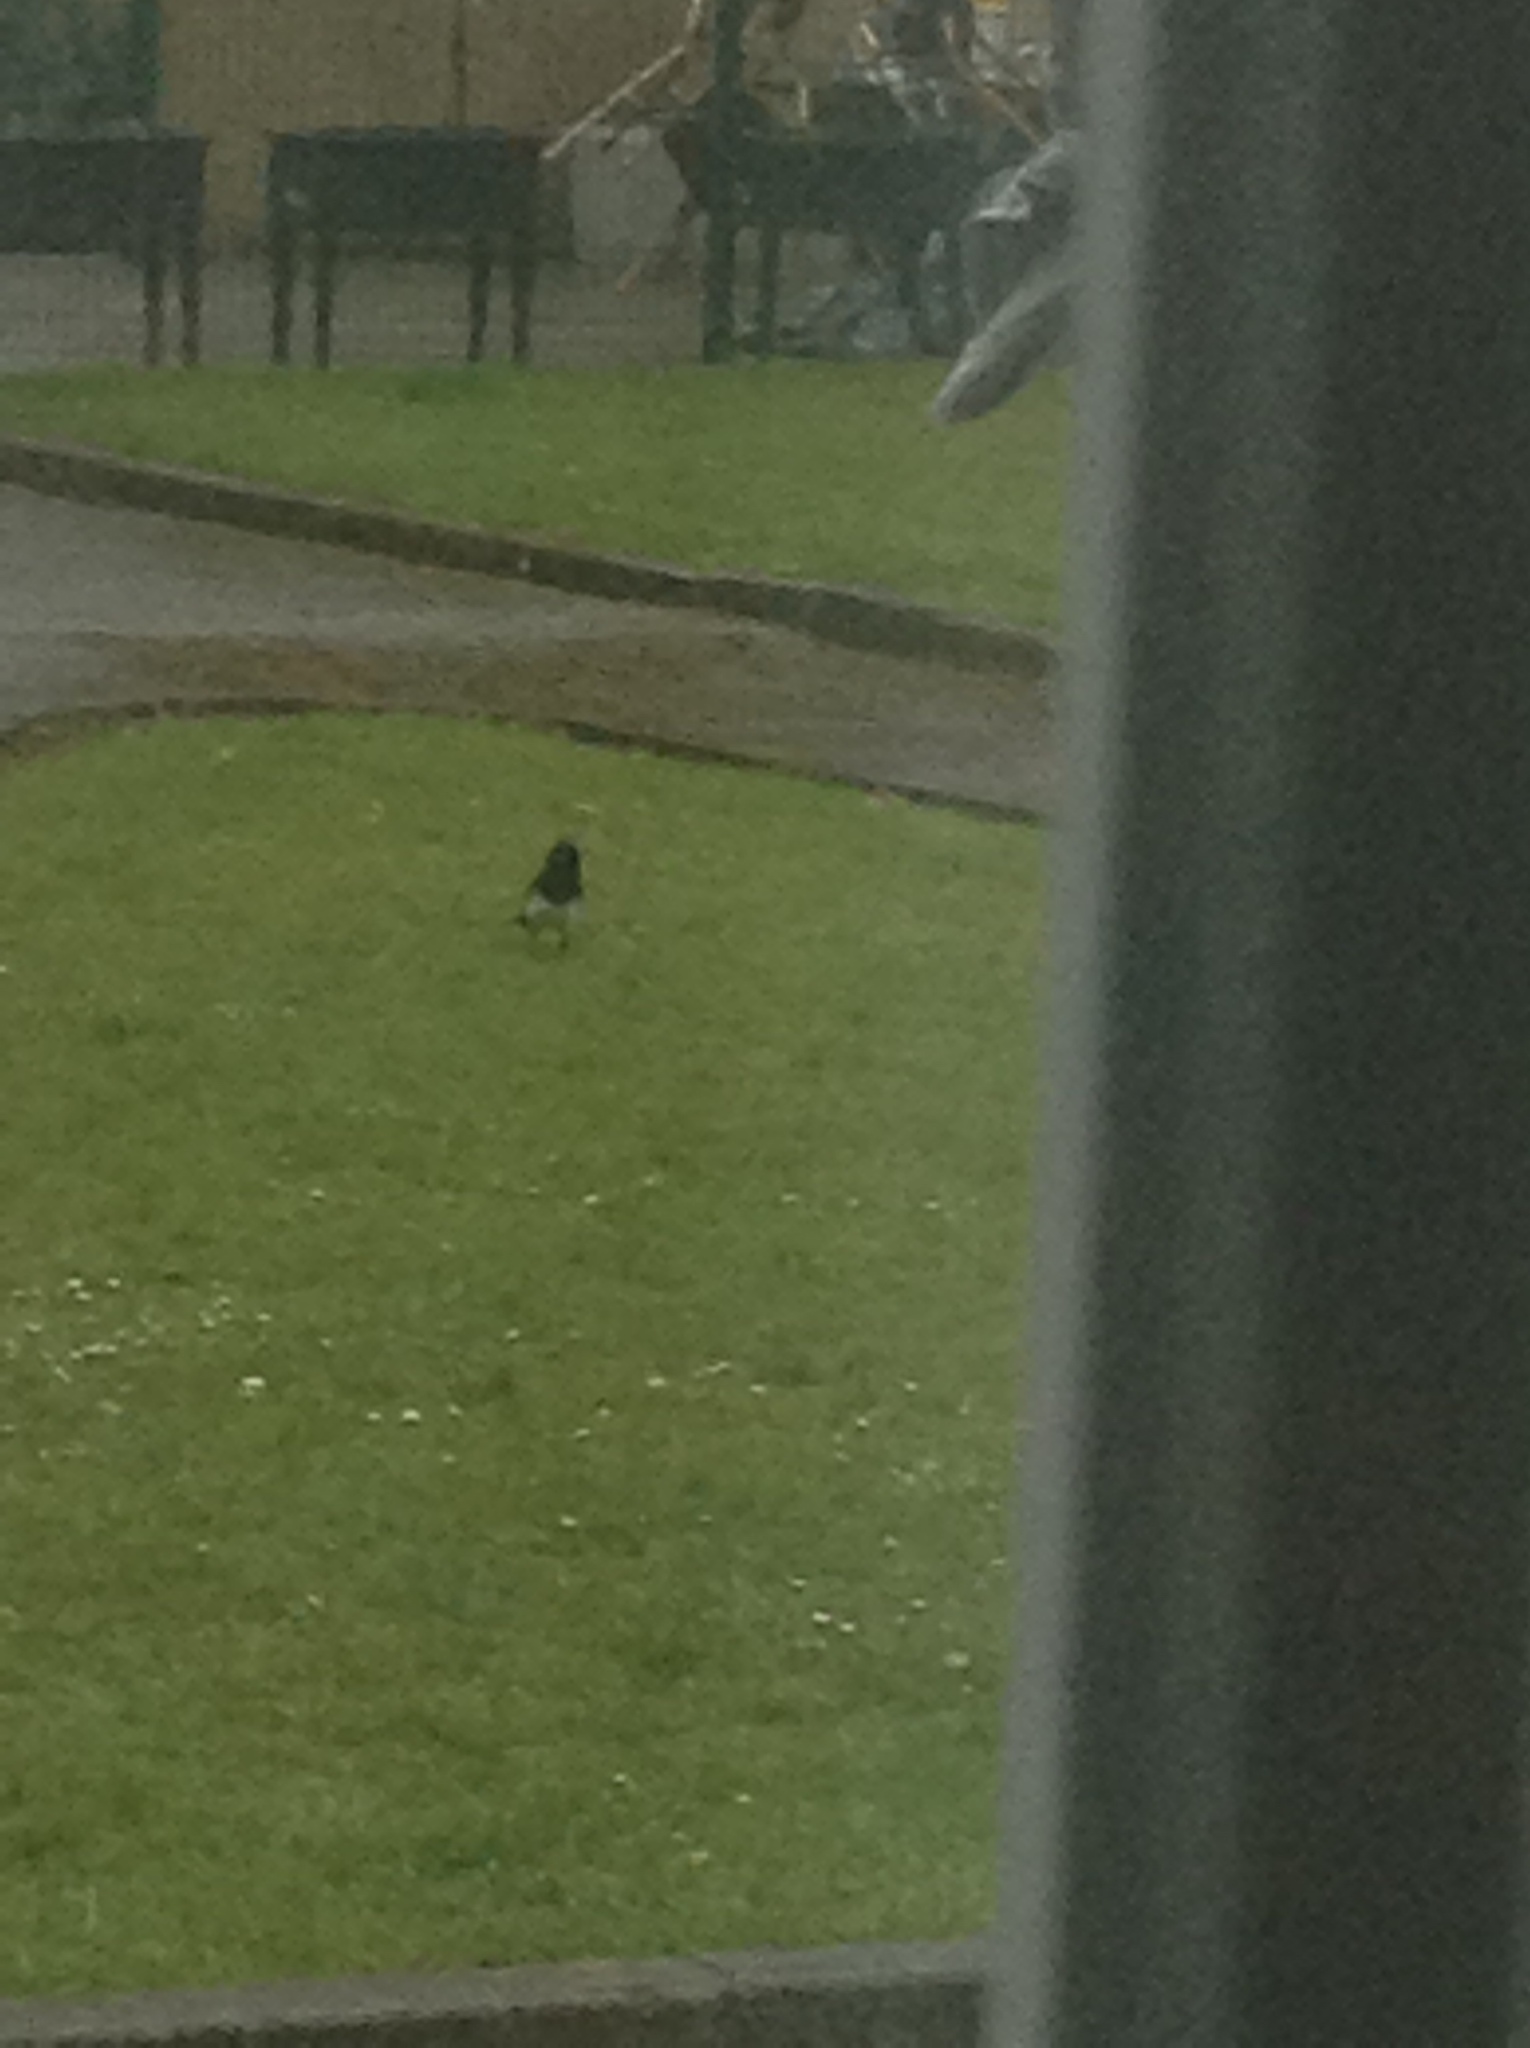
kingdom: Animalia
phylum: Chordata
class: Aves
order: Passeriformes
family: Corvidae
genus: Pica
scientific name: Pica pica
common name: Eurasian magpie
